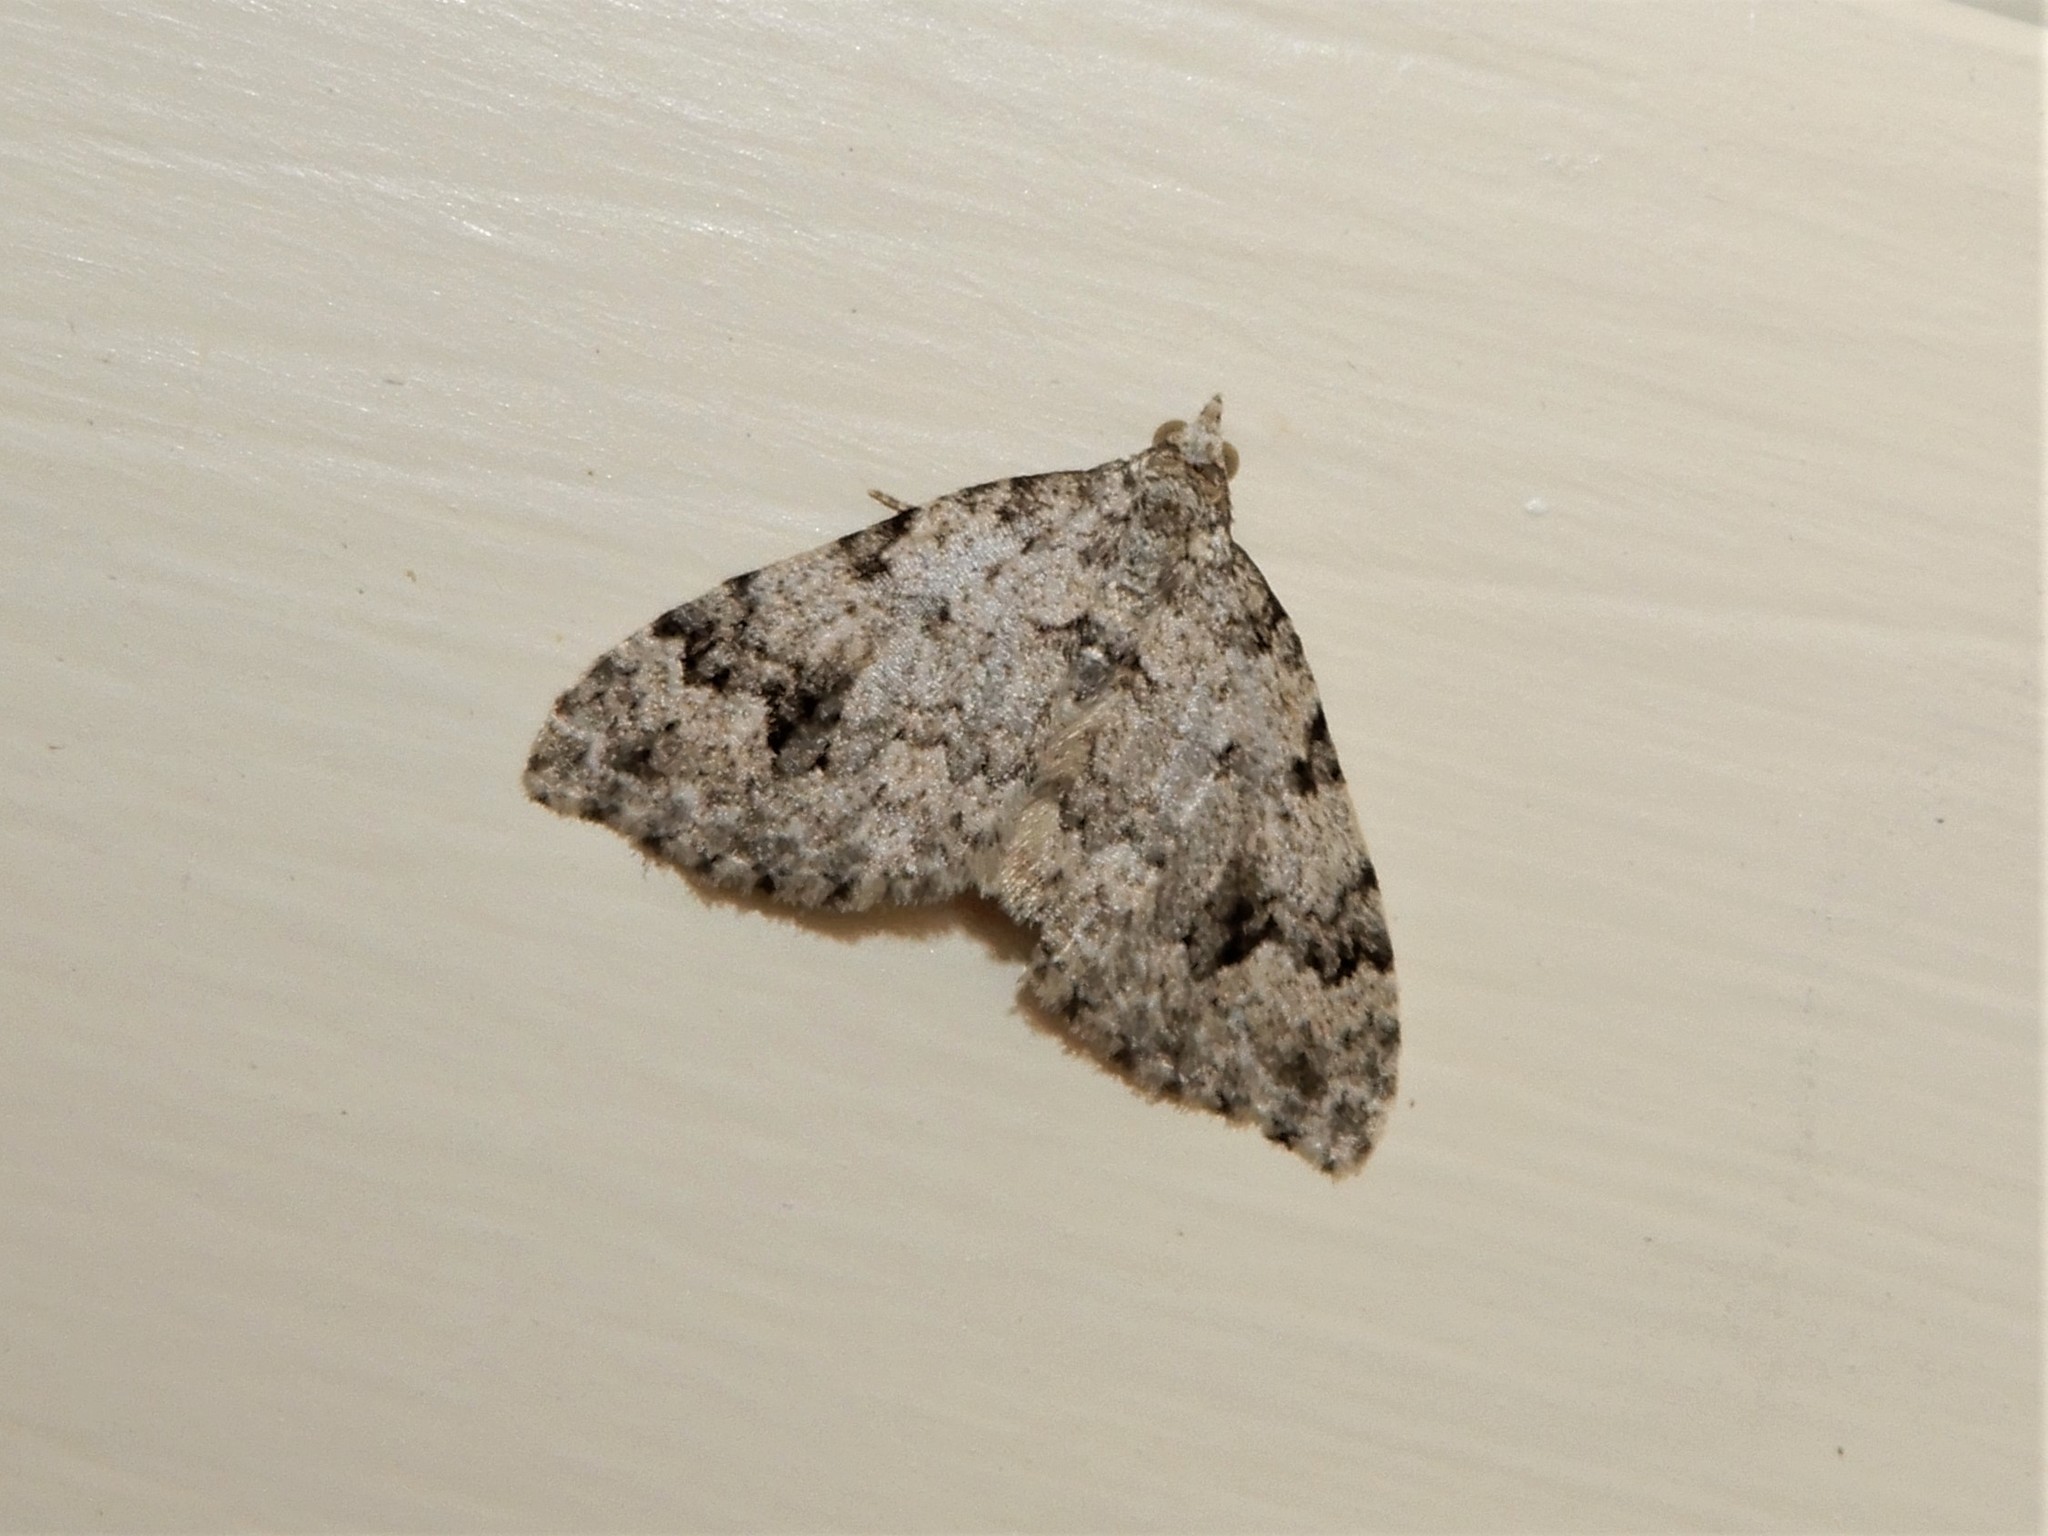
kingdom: Animalia
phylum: Arthropoda
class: Insecta
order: Lepidoptera
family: Geometridae
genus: Helastia
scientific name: Helastia cinerearia
